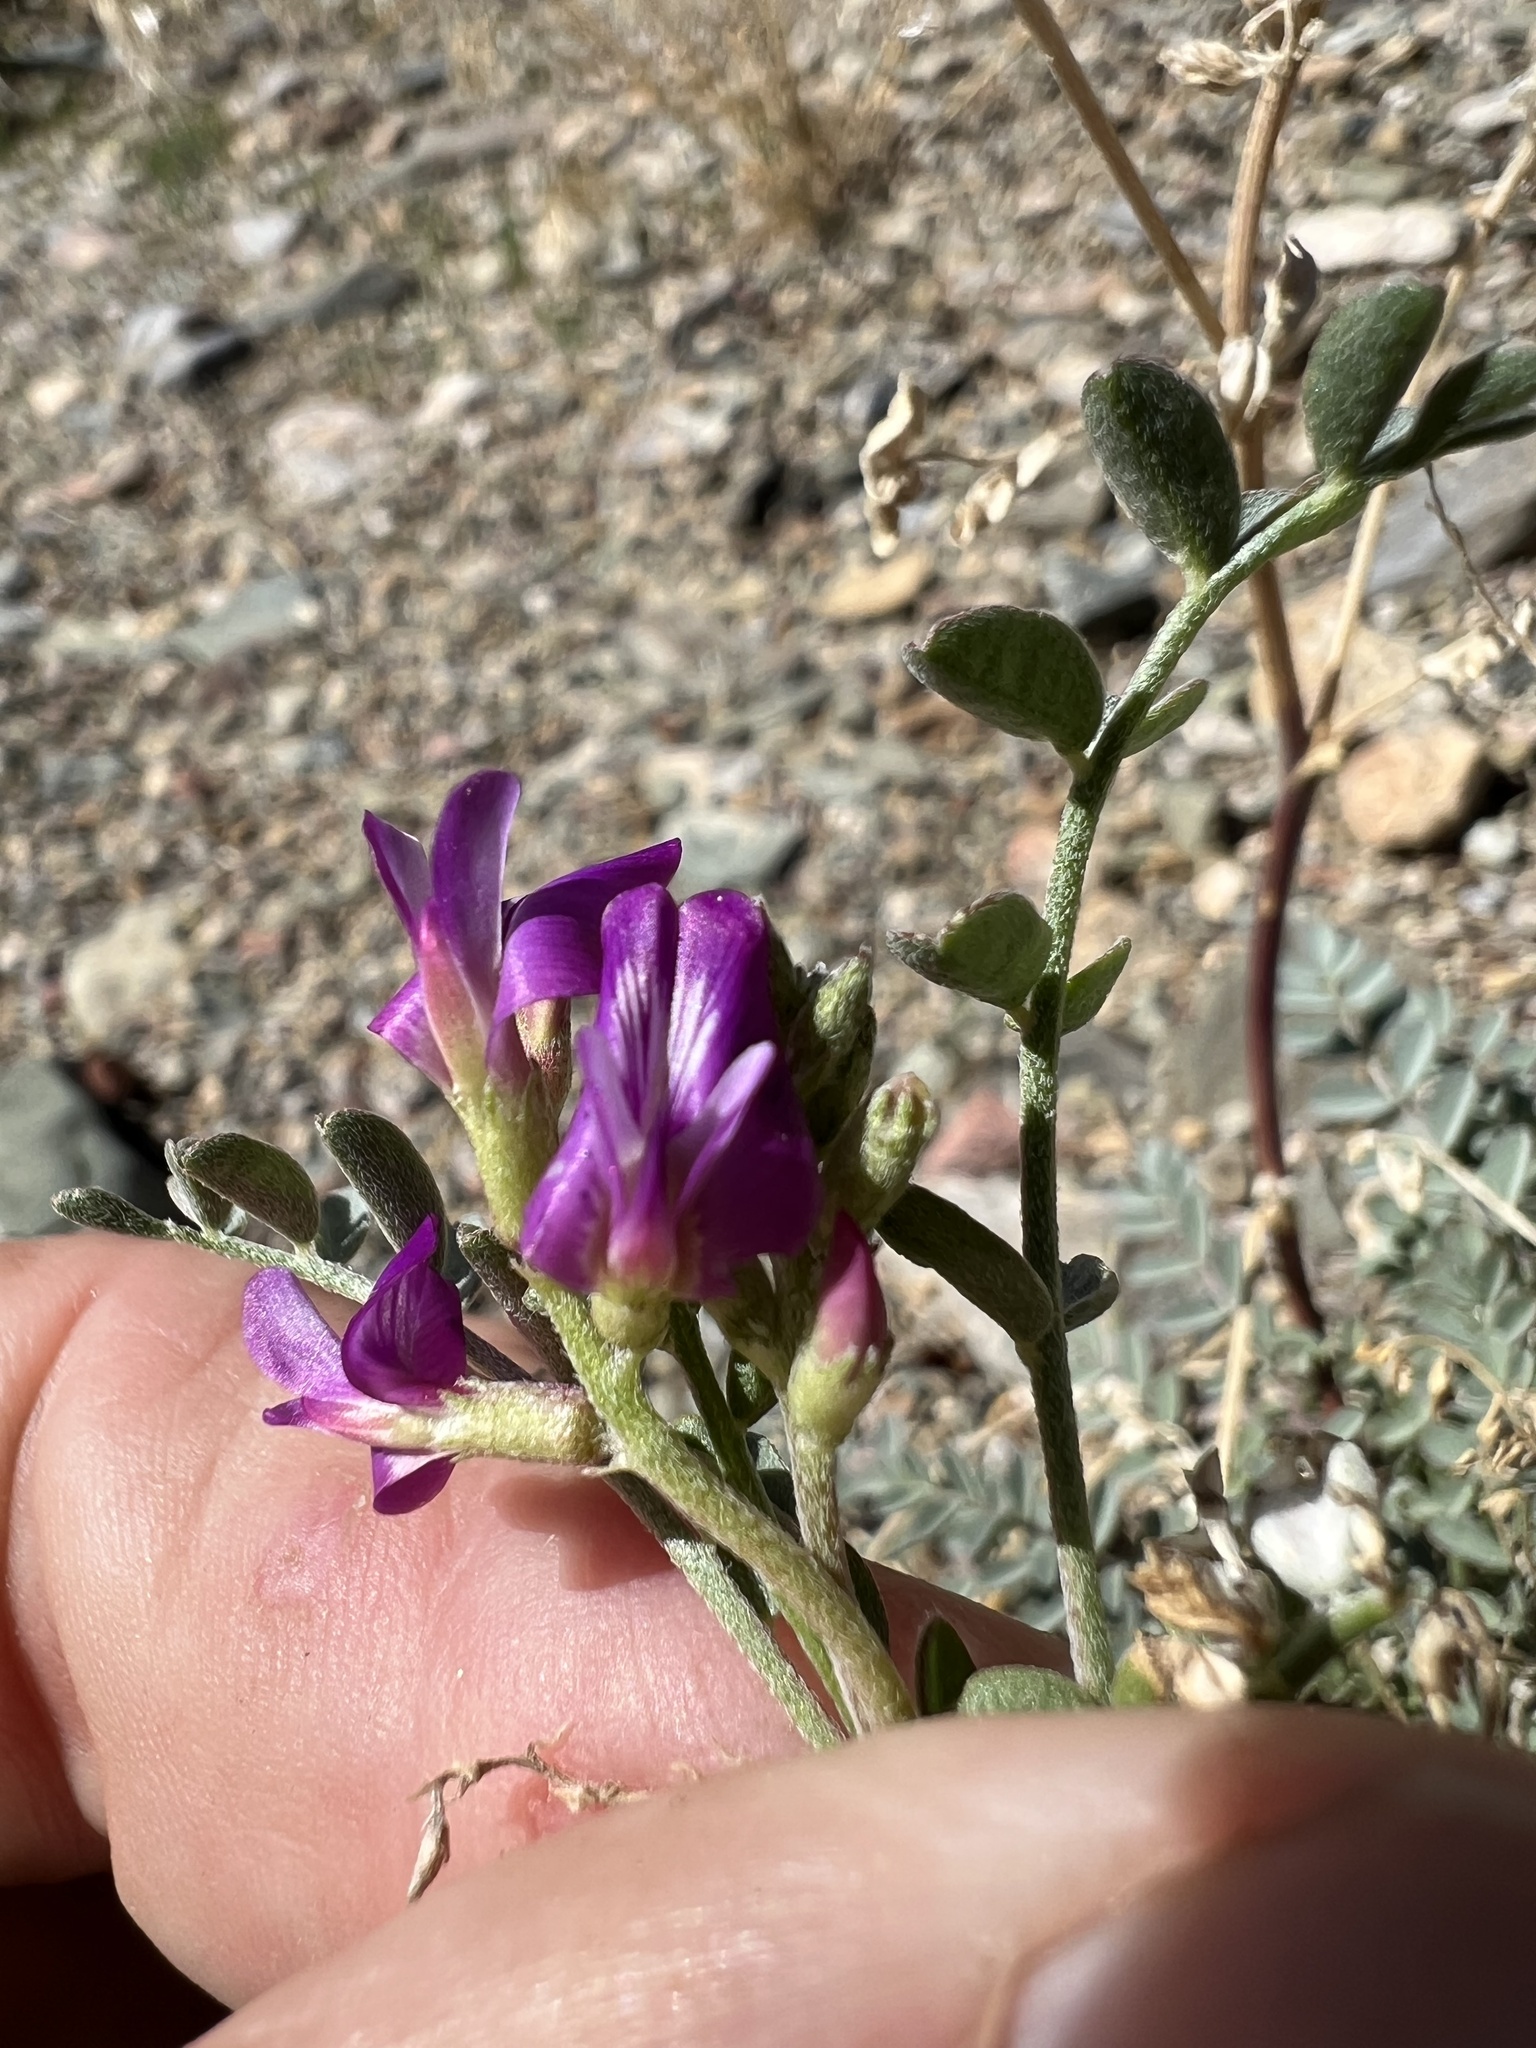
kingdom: Plantae
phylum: Tracheophyta
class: Magnoliopsida
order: Fabales
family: Fabaceae
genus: Astragalus
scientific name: Astragalus lentiginosus
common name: Freckled milkvetch
